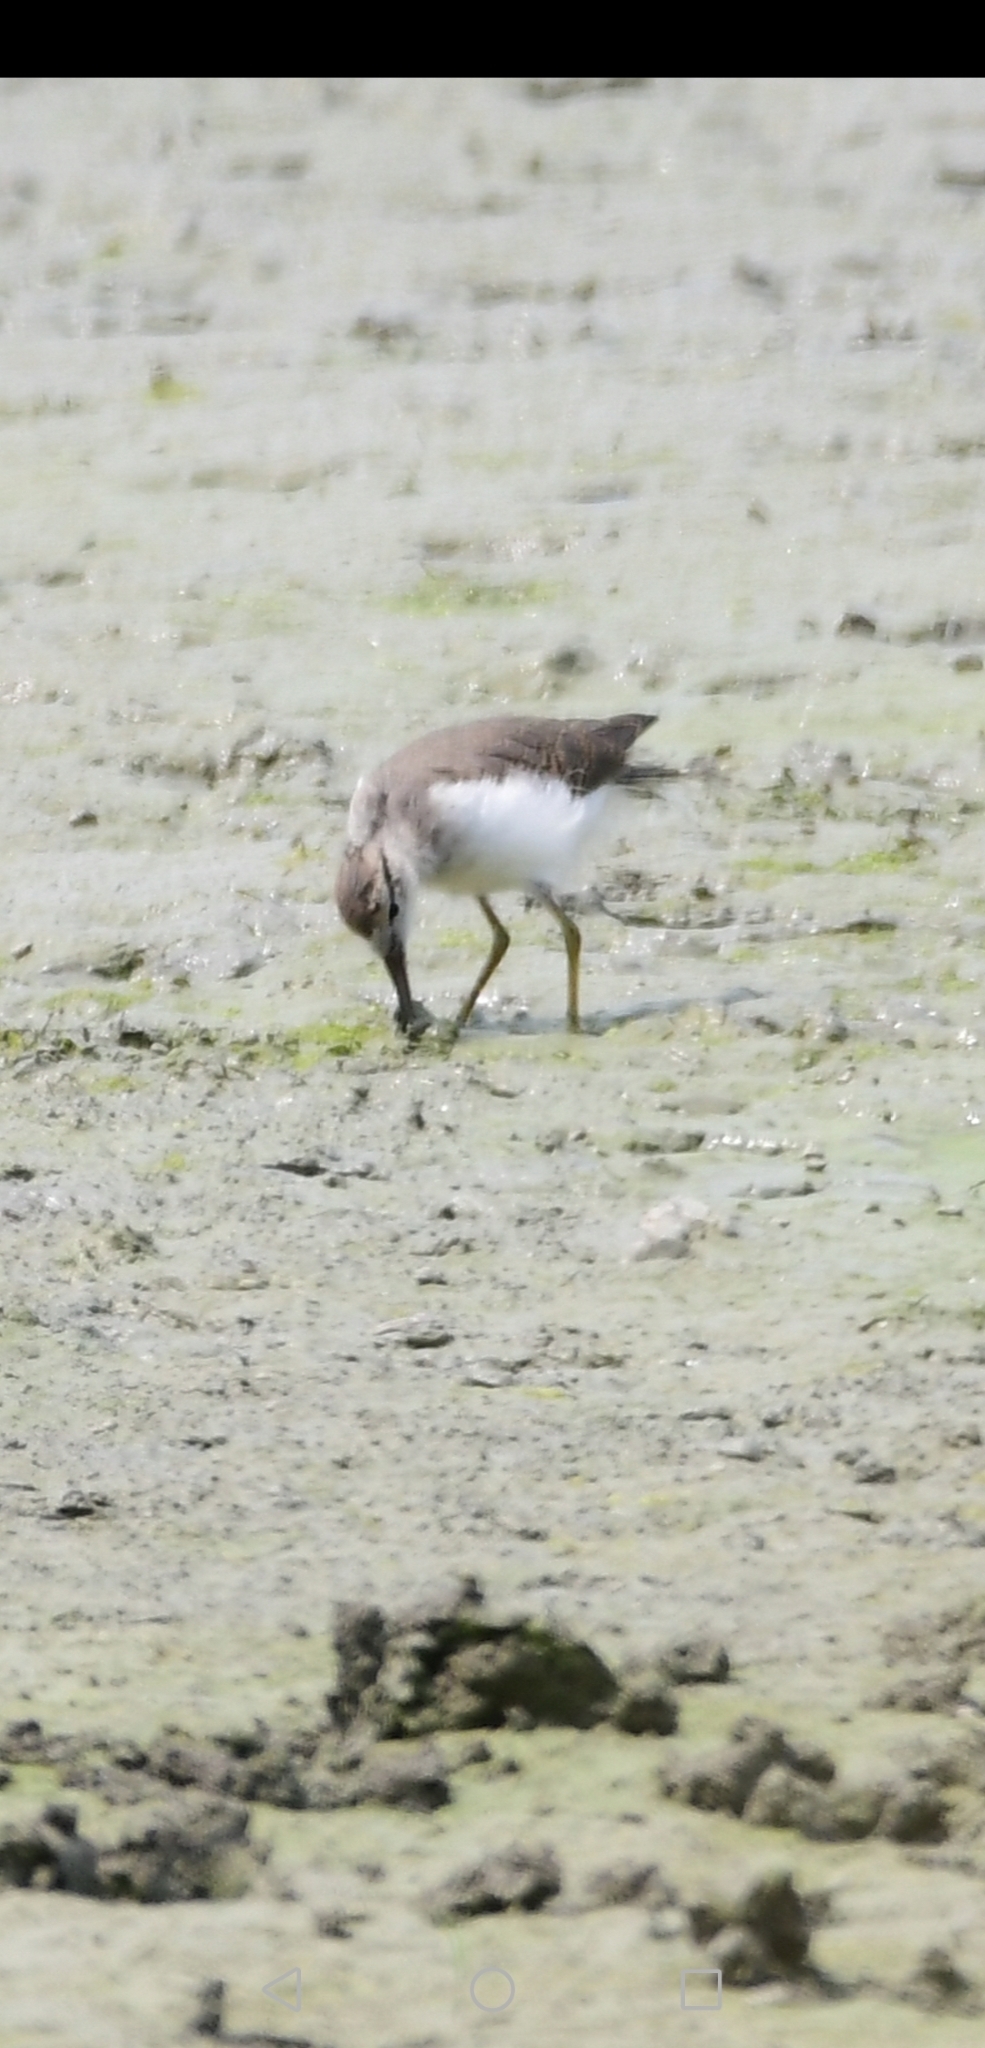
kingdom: Animalia
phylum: Chordata
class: Aves
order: Charadriiformes
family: Scolopacidae
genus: Actitis
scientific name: Actitis macularius
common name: Spotted sandpiper
